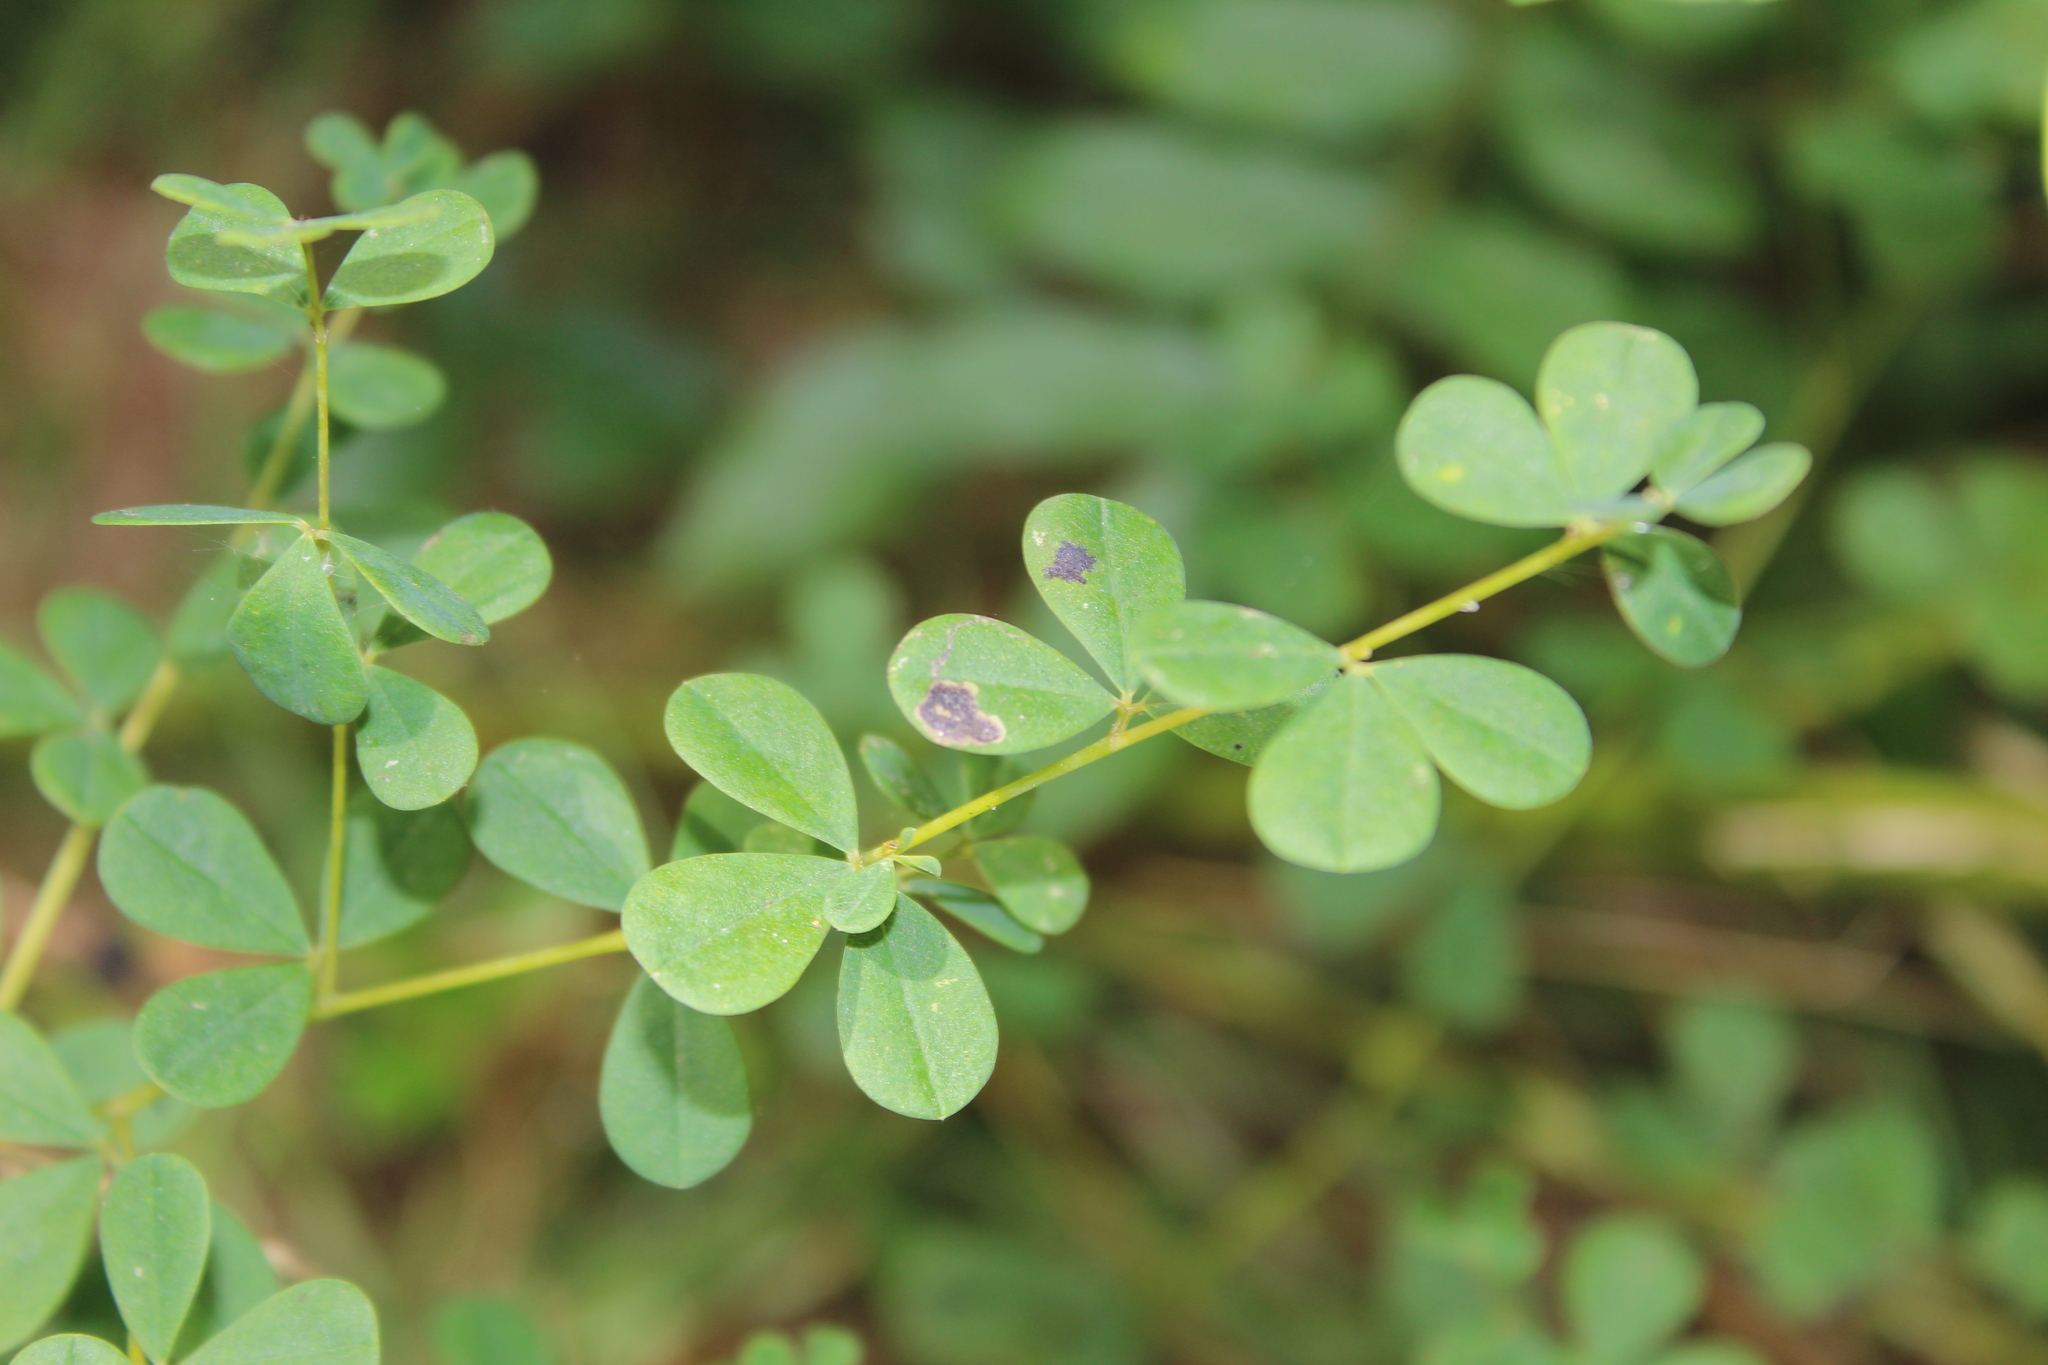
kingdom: Animalia
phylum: Arthropoda
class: Insecta
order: Diptera
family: Agromyzidae
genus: Liriomyza
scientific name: Liriomyza baptisiae
